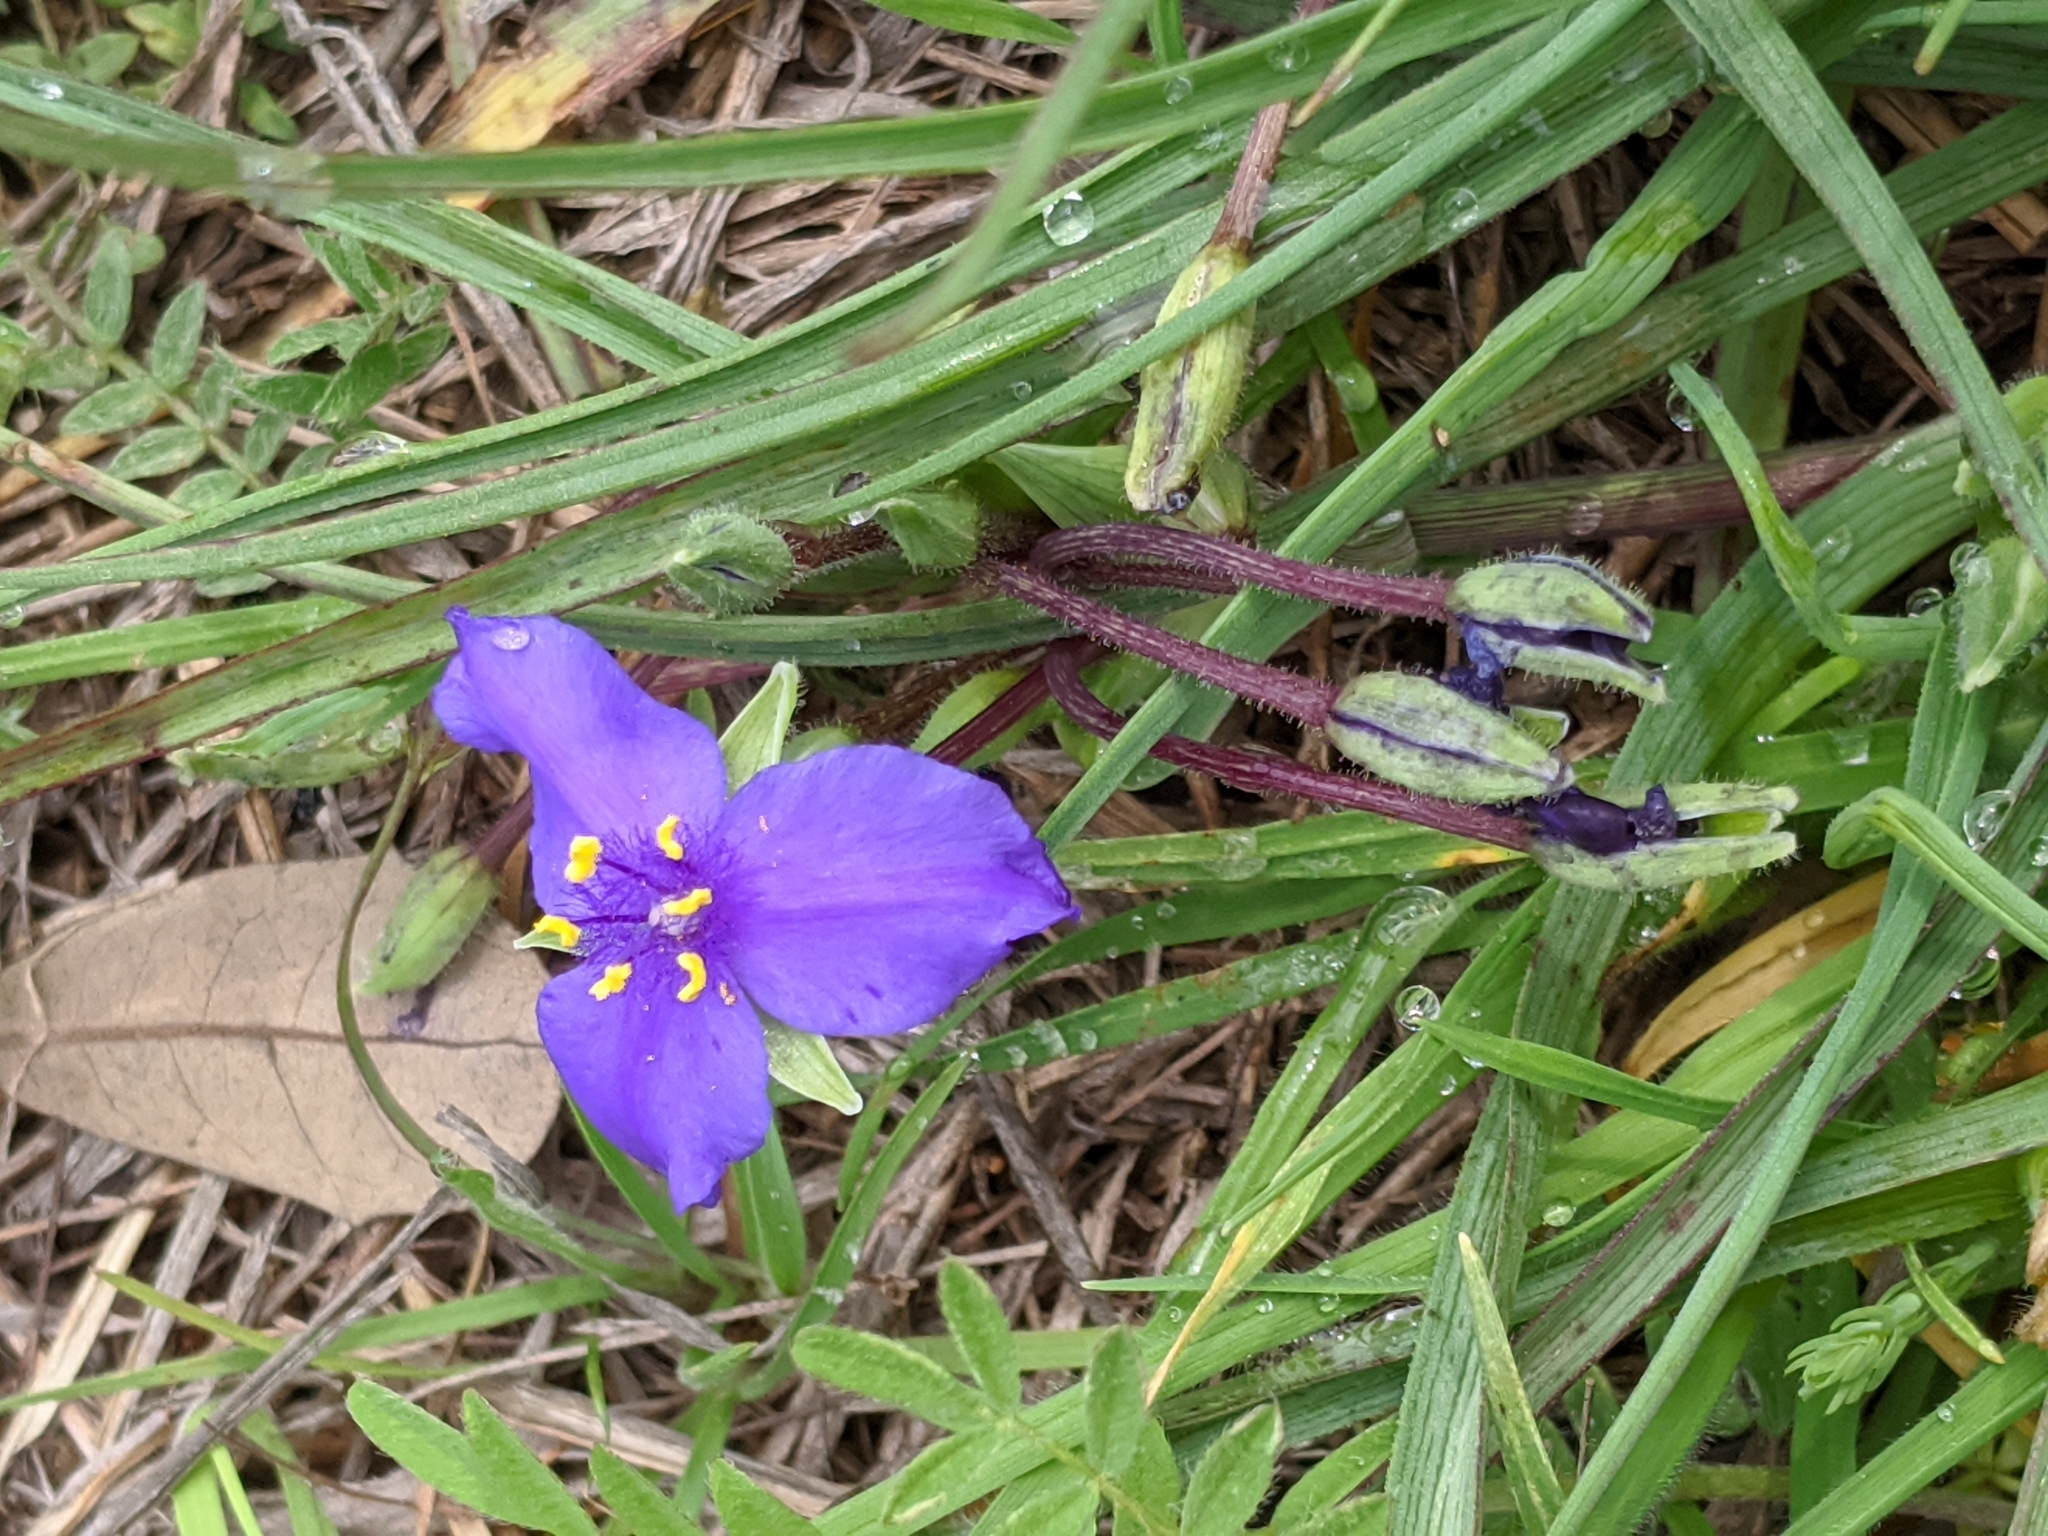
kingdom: Plantae
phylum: Tracheophyta
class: Liliopsida
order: Commelinales
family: Commelinaceae
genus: Tradescantia
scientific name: Tradescantia occidentalis
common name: Prairie spiderwort
